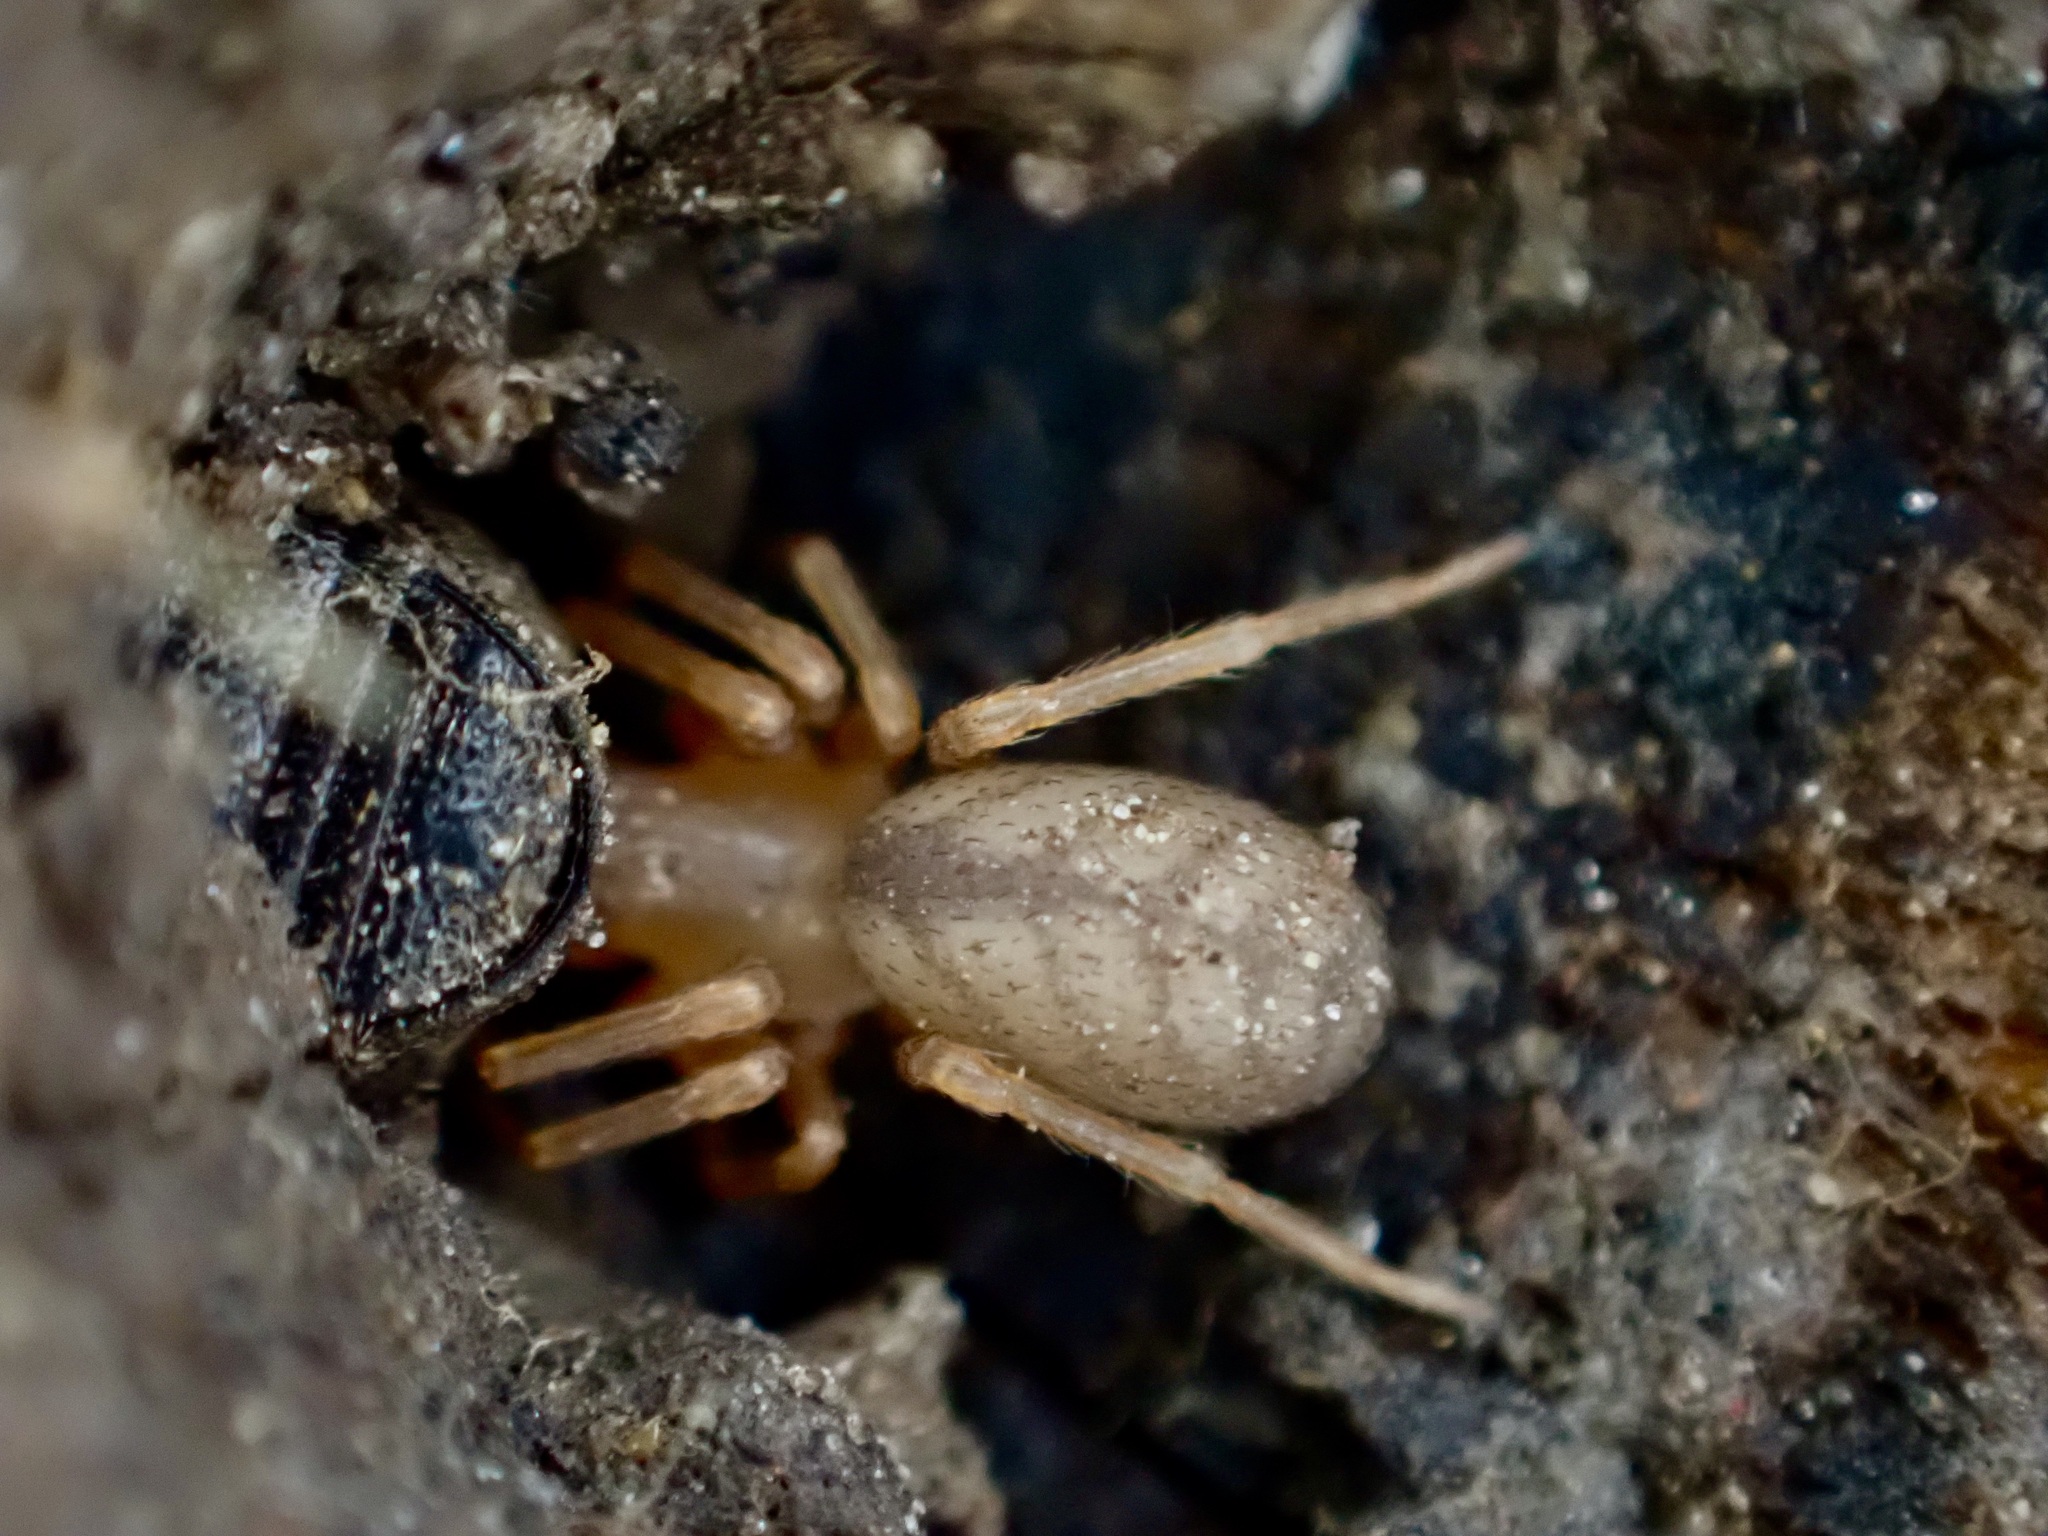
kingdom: Animalia
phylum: Arthropoda
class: Arachnida
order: Araneae
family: Periegopidae
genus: Periegops
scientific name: Periegops suterii
